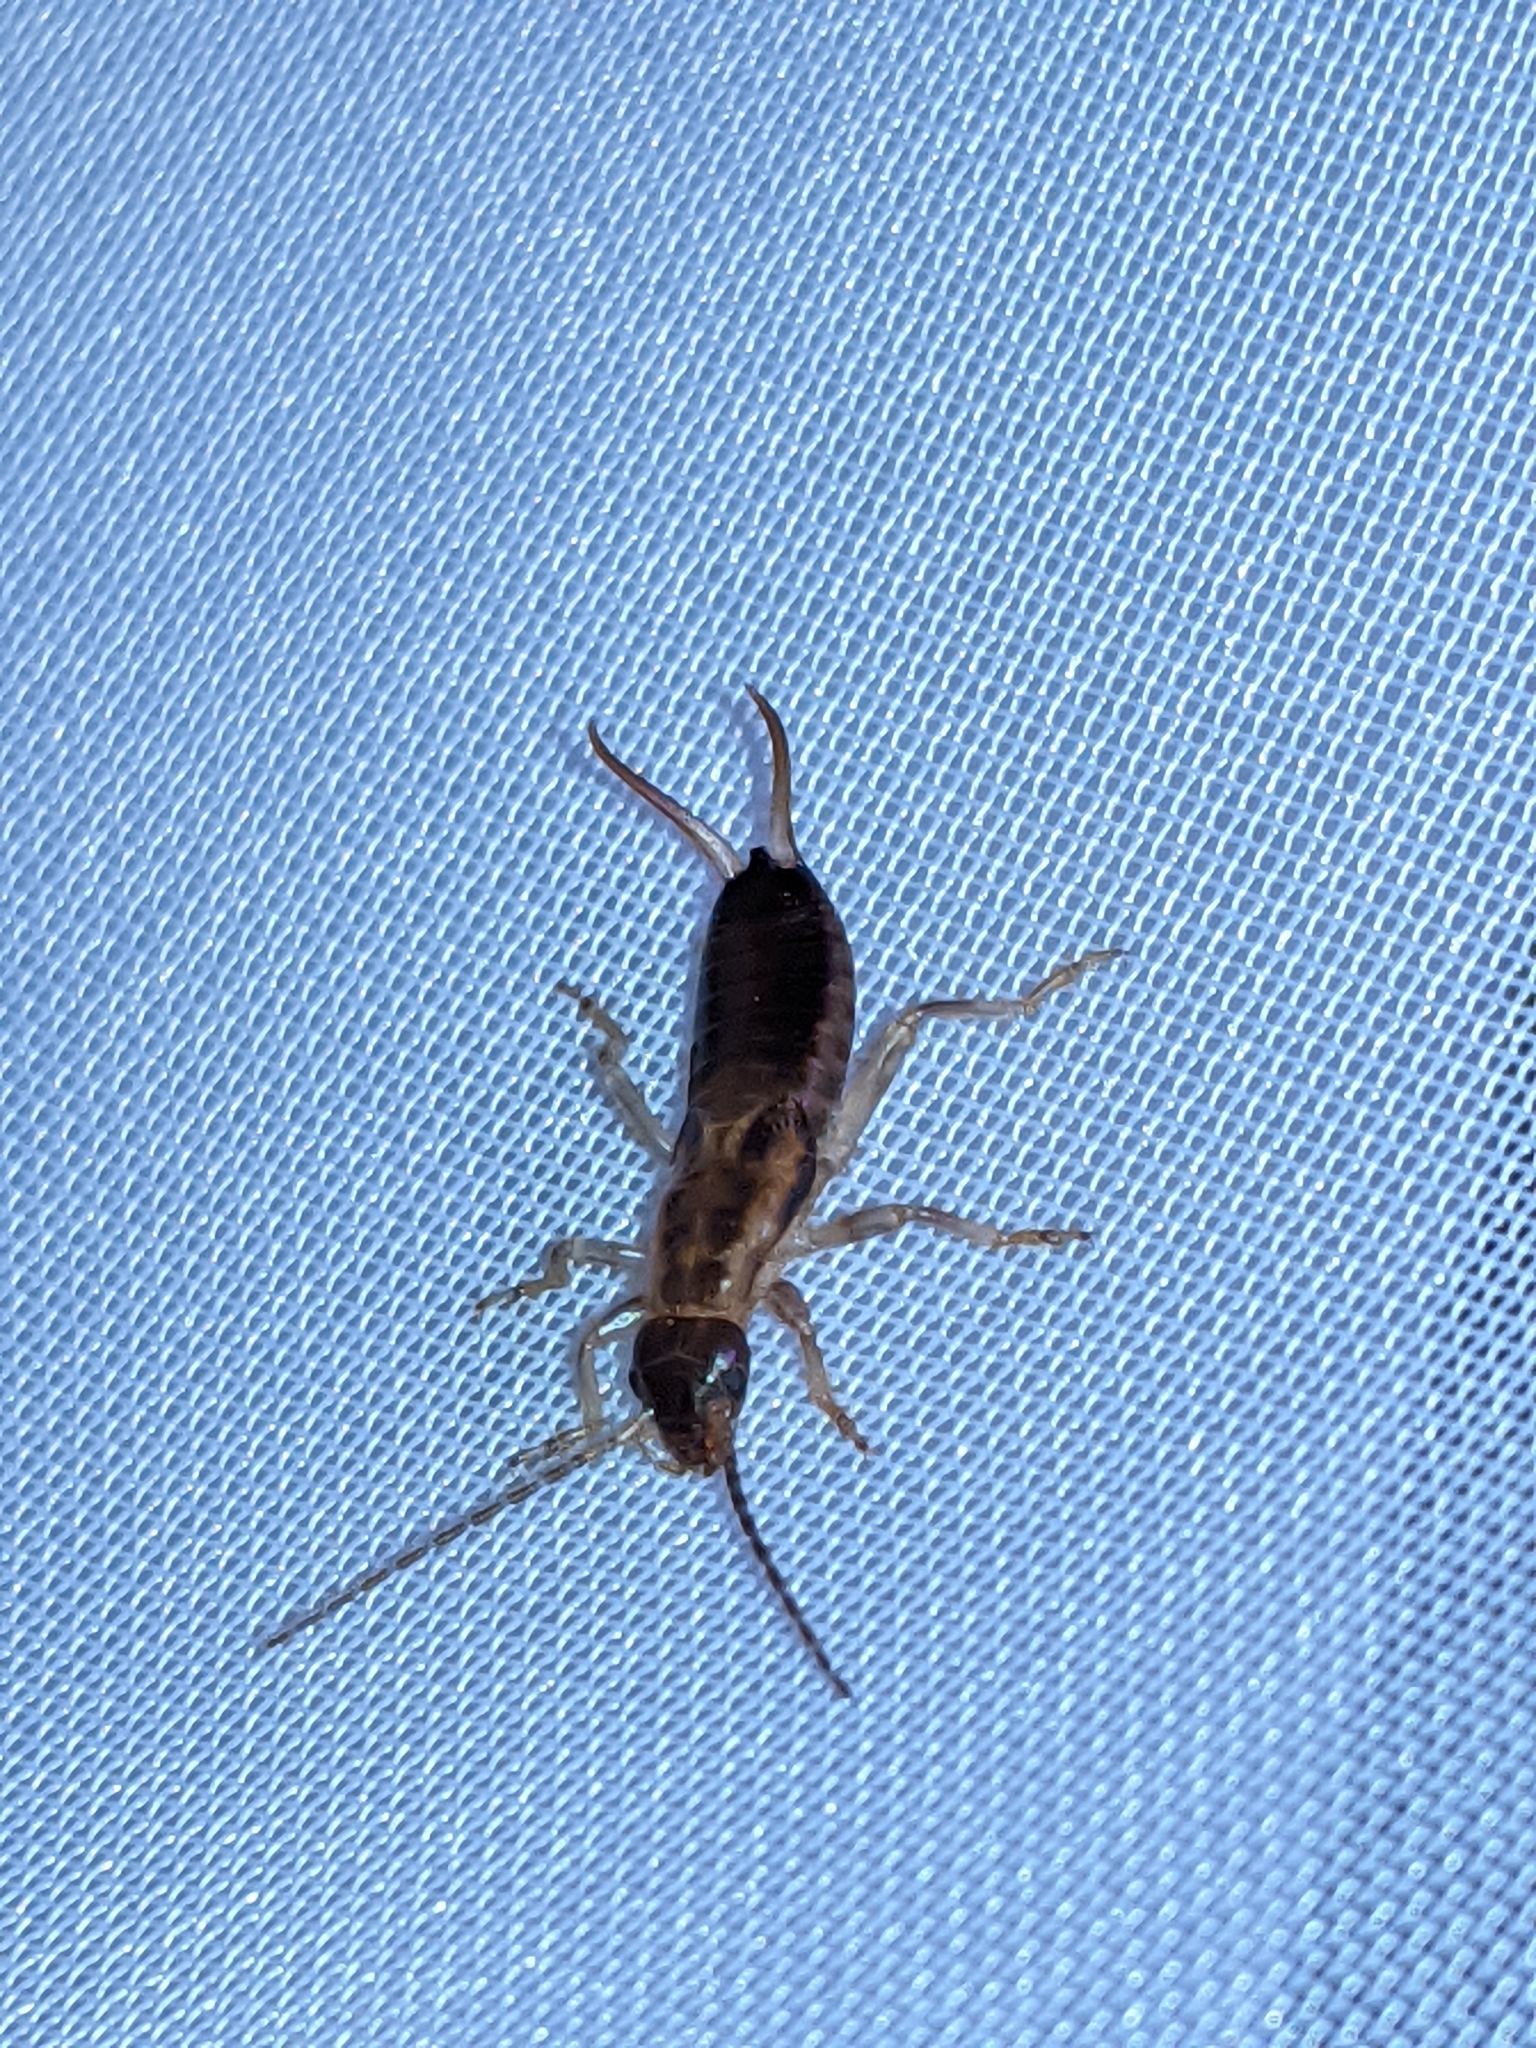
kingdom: Animalia
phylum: Arthropoda
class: Insecta
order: Dermaptera
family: Forficulidae
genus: Forficula
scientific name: Forficula
